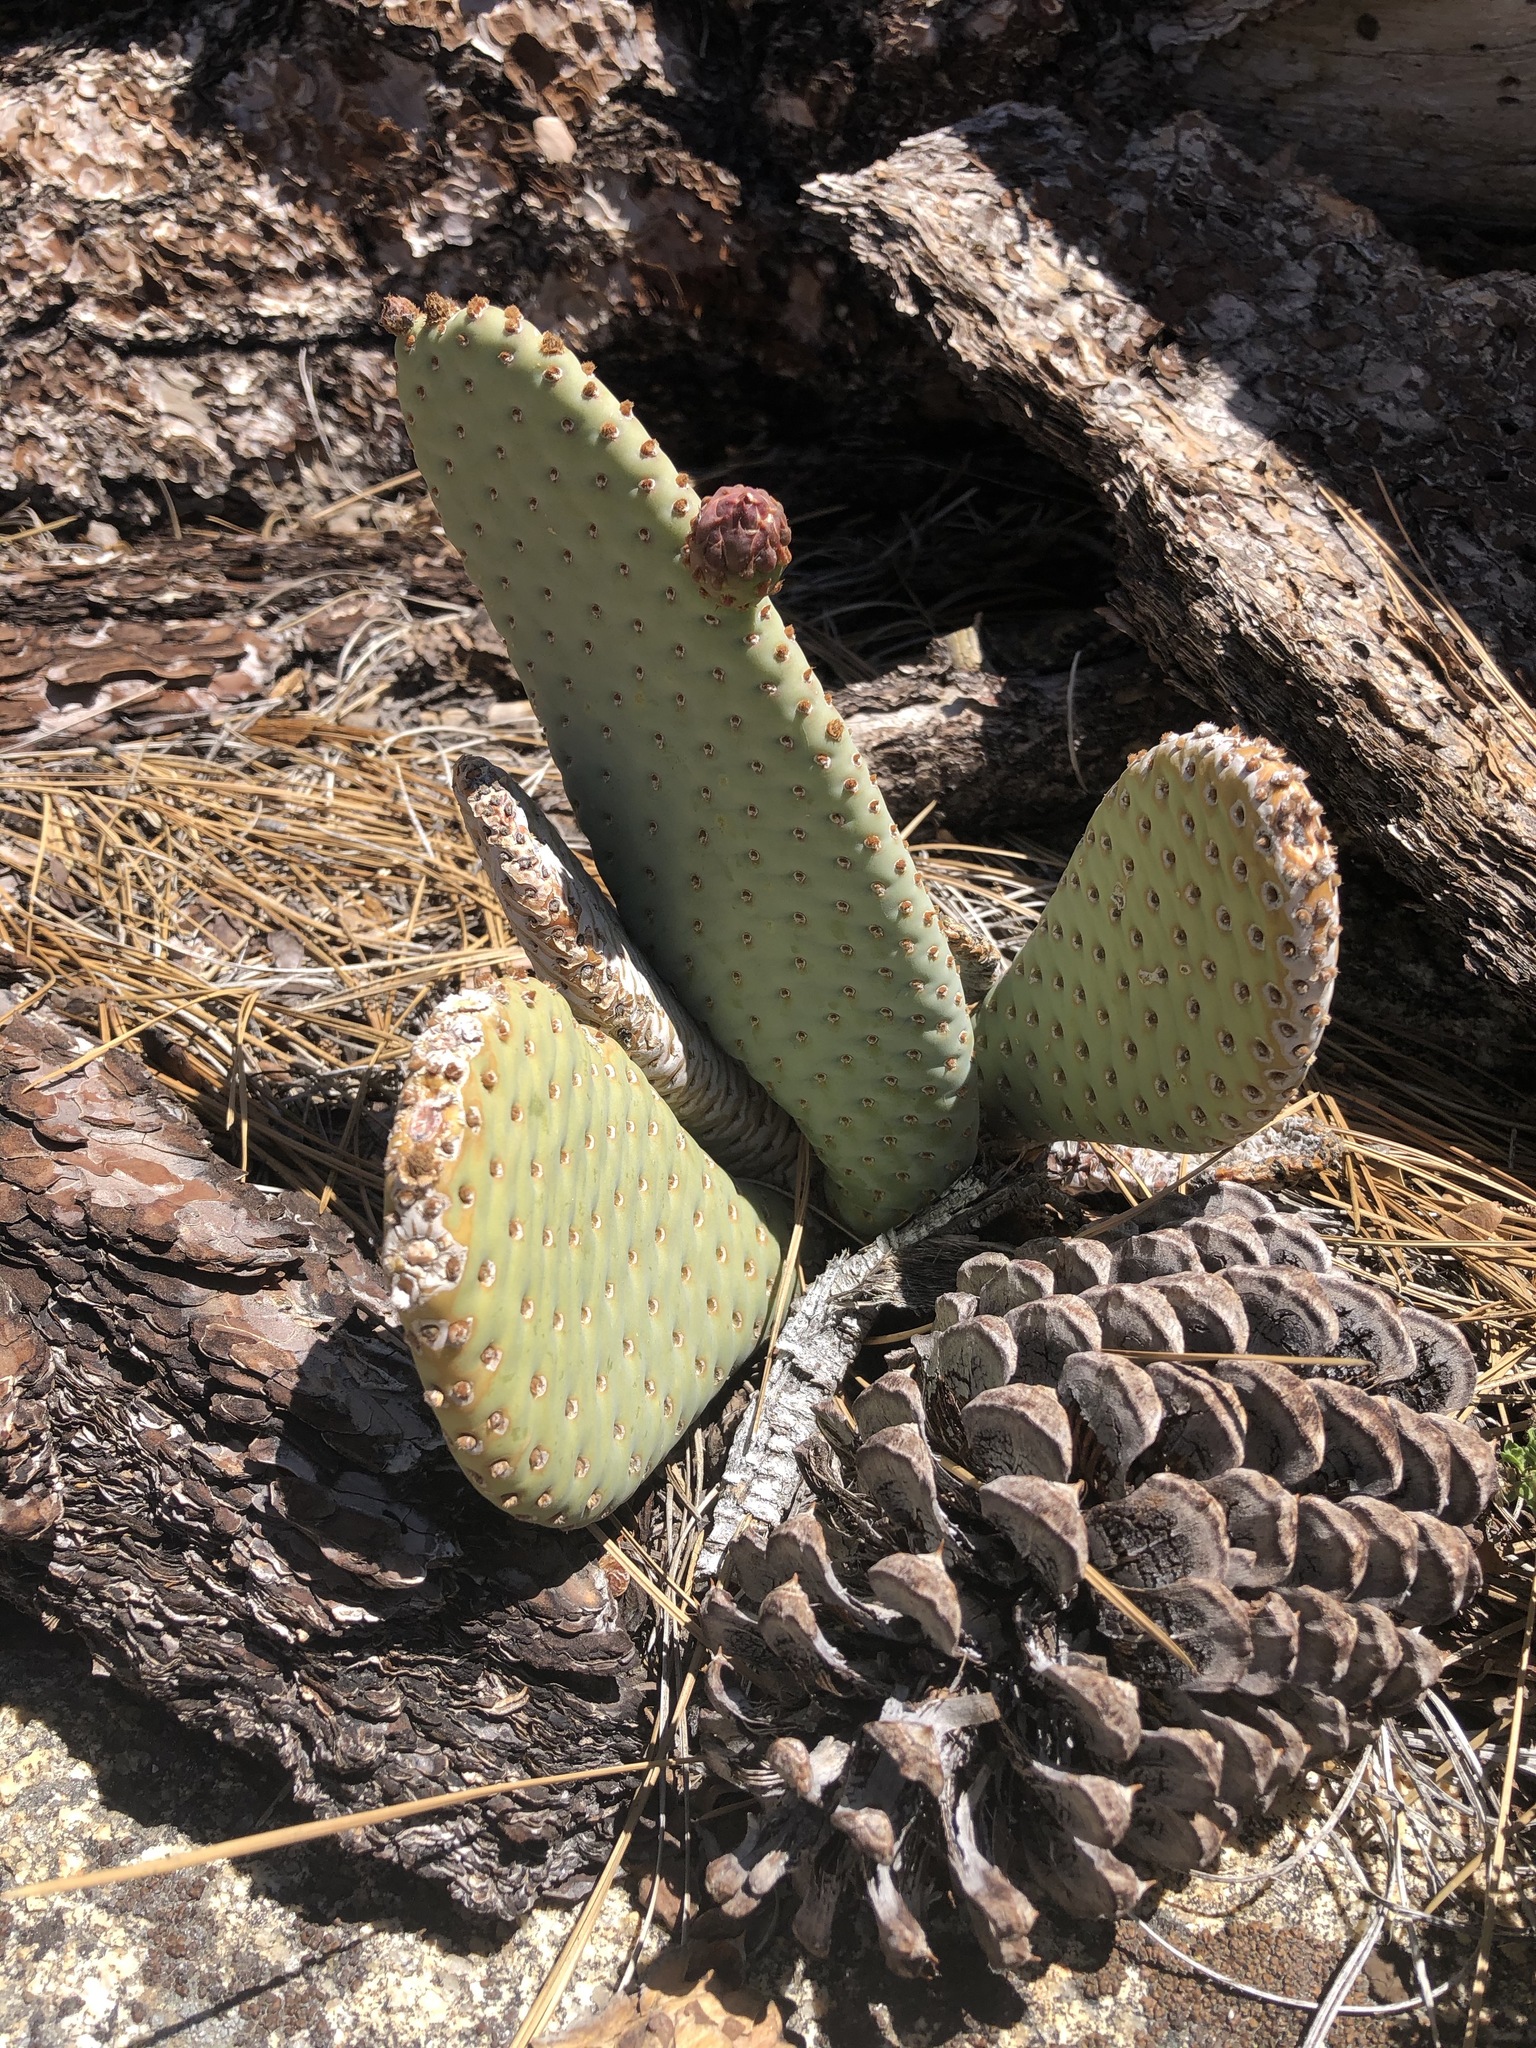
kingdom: Plantae
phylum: Tracheophyta
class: Magnoliopsida
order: Caryophyllales
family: Cactaceae
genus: Opuntia
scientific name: Opuntia basilaris
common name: Beavertail prickly-pear
